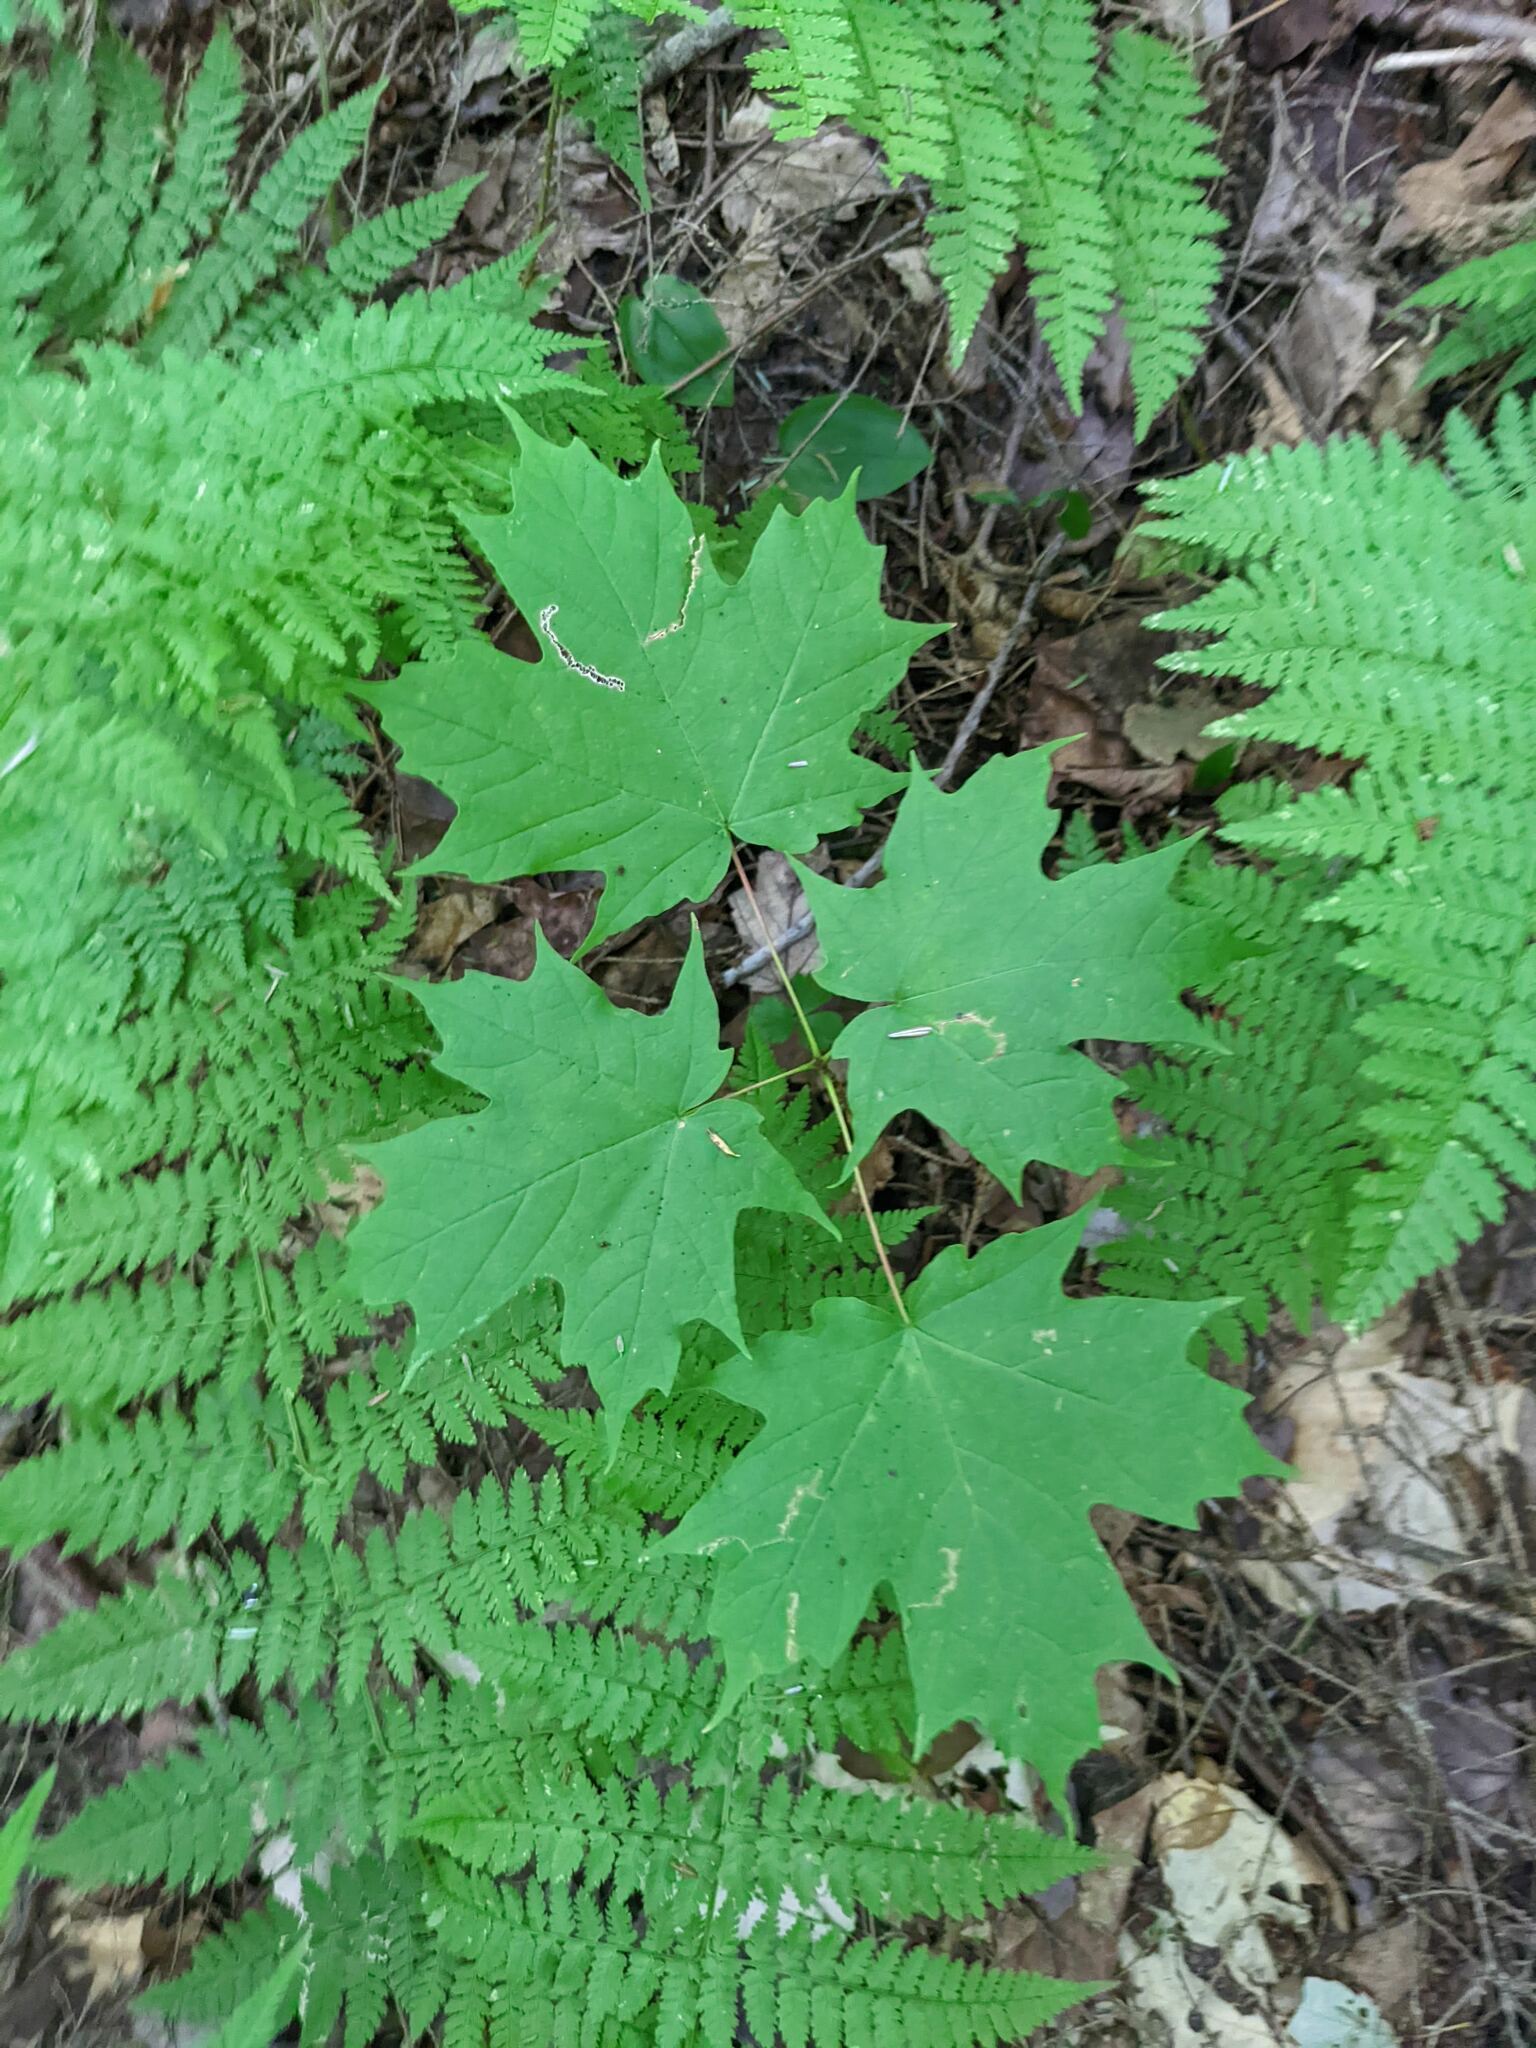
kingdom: Plantae
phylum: Tracheophyta
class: Magnoliopsida
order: Sapindales
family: Sapindaceae
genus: Acer
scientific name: Acer saccharum
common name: Sugar maple
